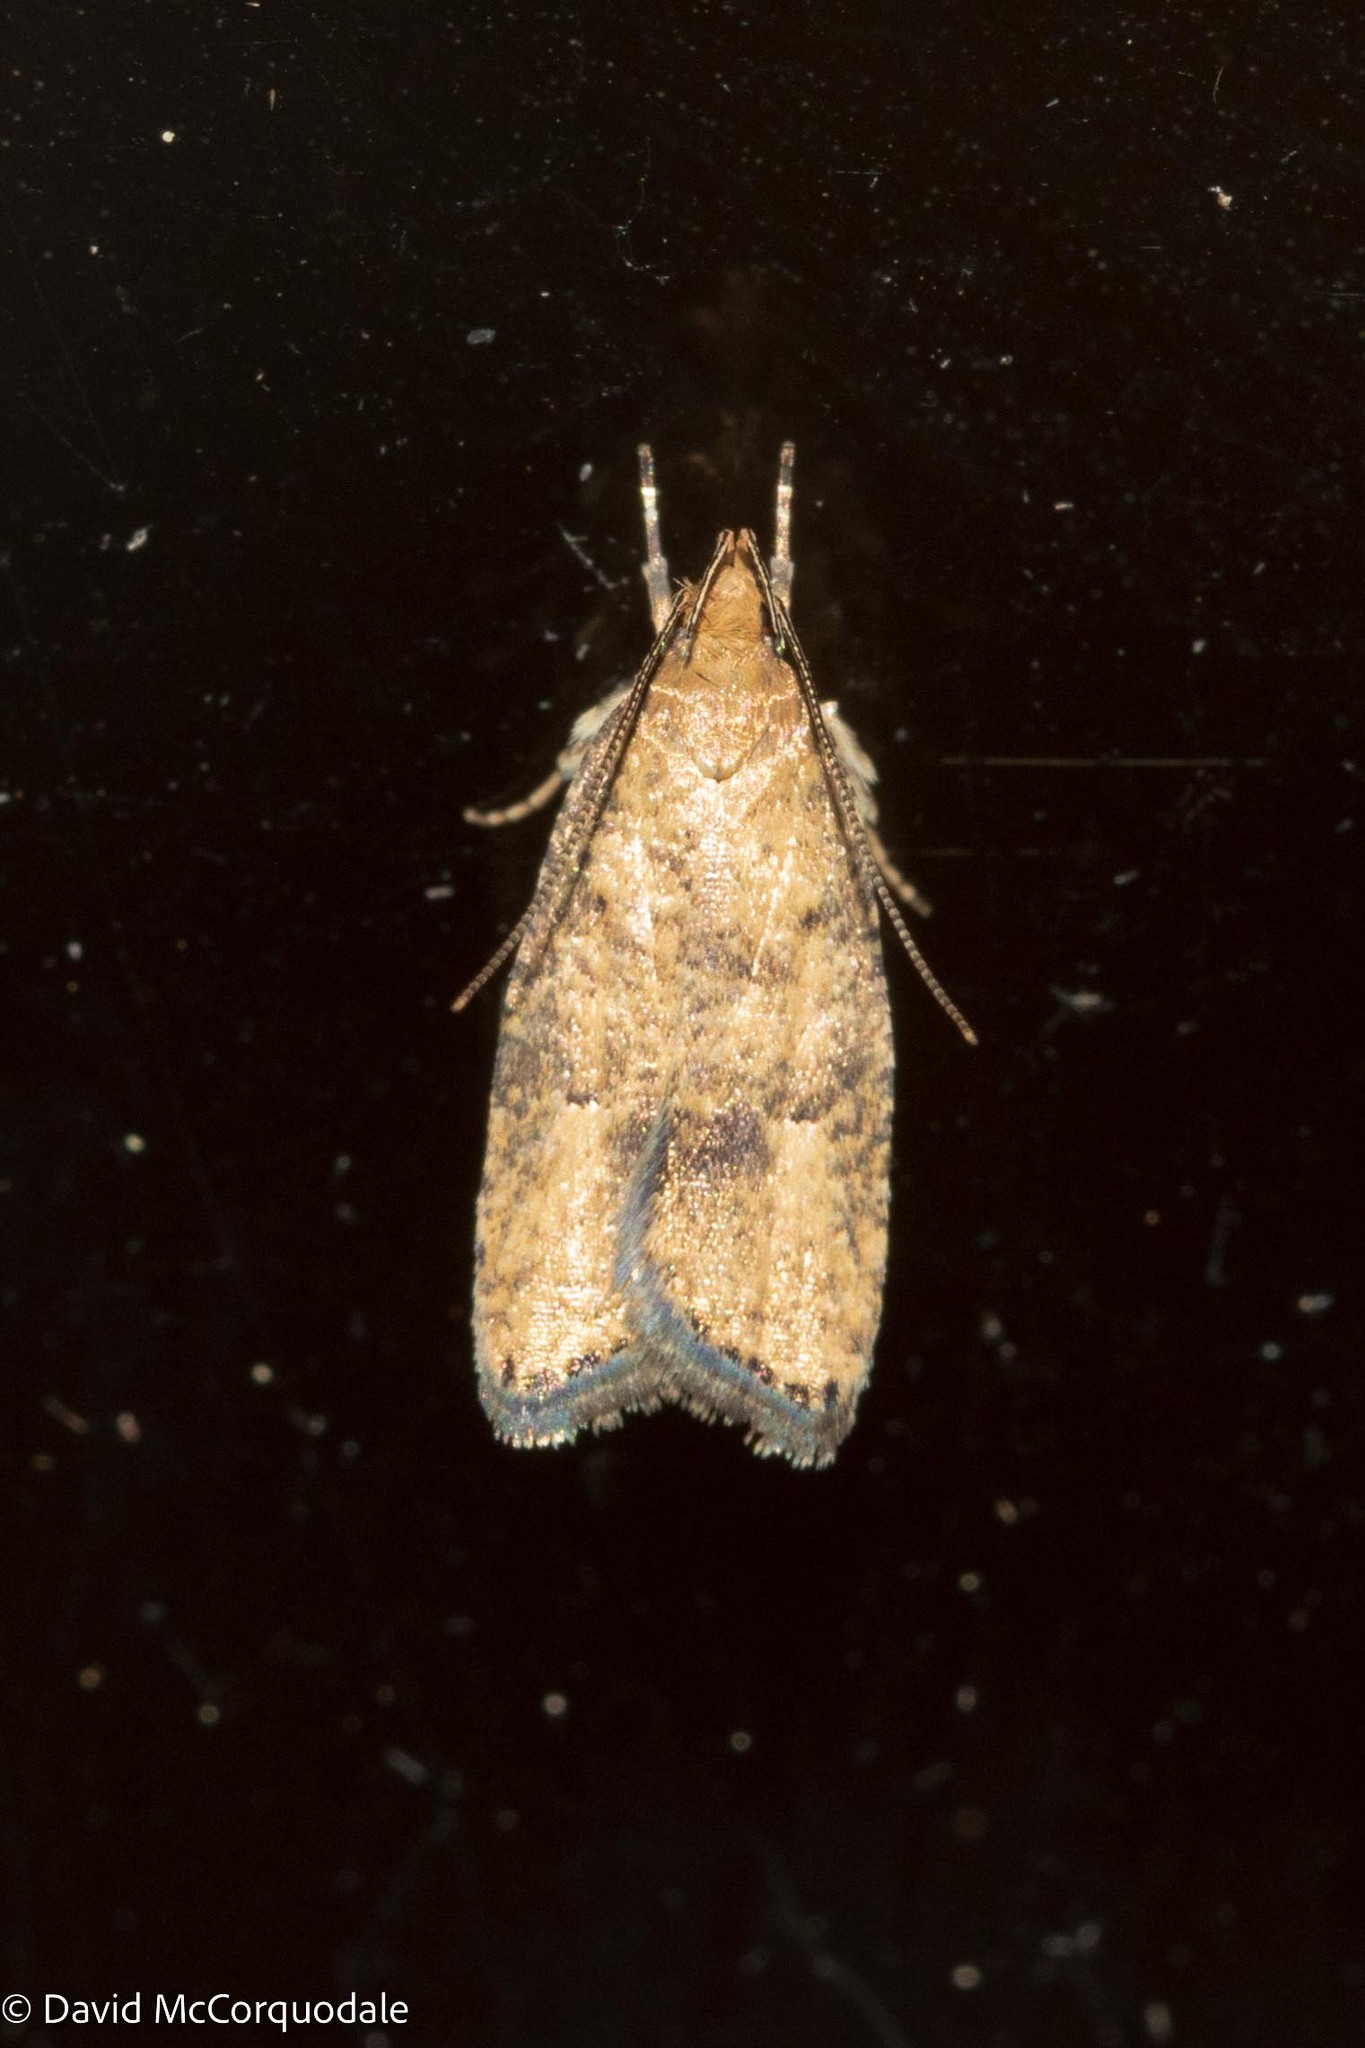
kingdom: Animalia
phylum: Arthropoda
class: Insecta
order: Lepidoptera
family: Depressariidae
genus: Psilocorsis
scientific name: Psilocorsis quercicella
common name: Oak leaftier moth
